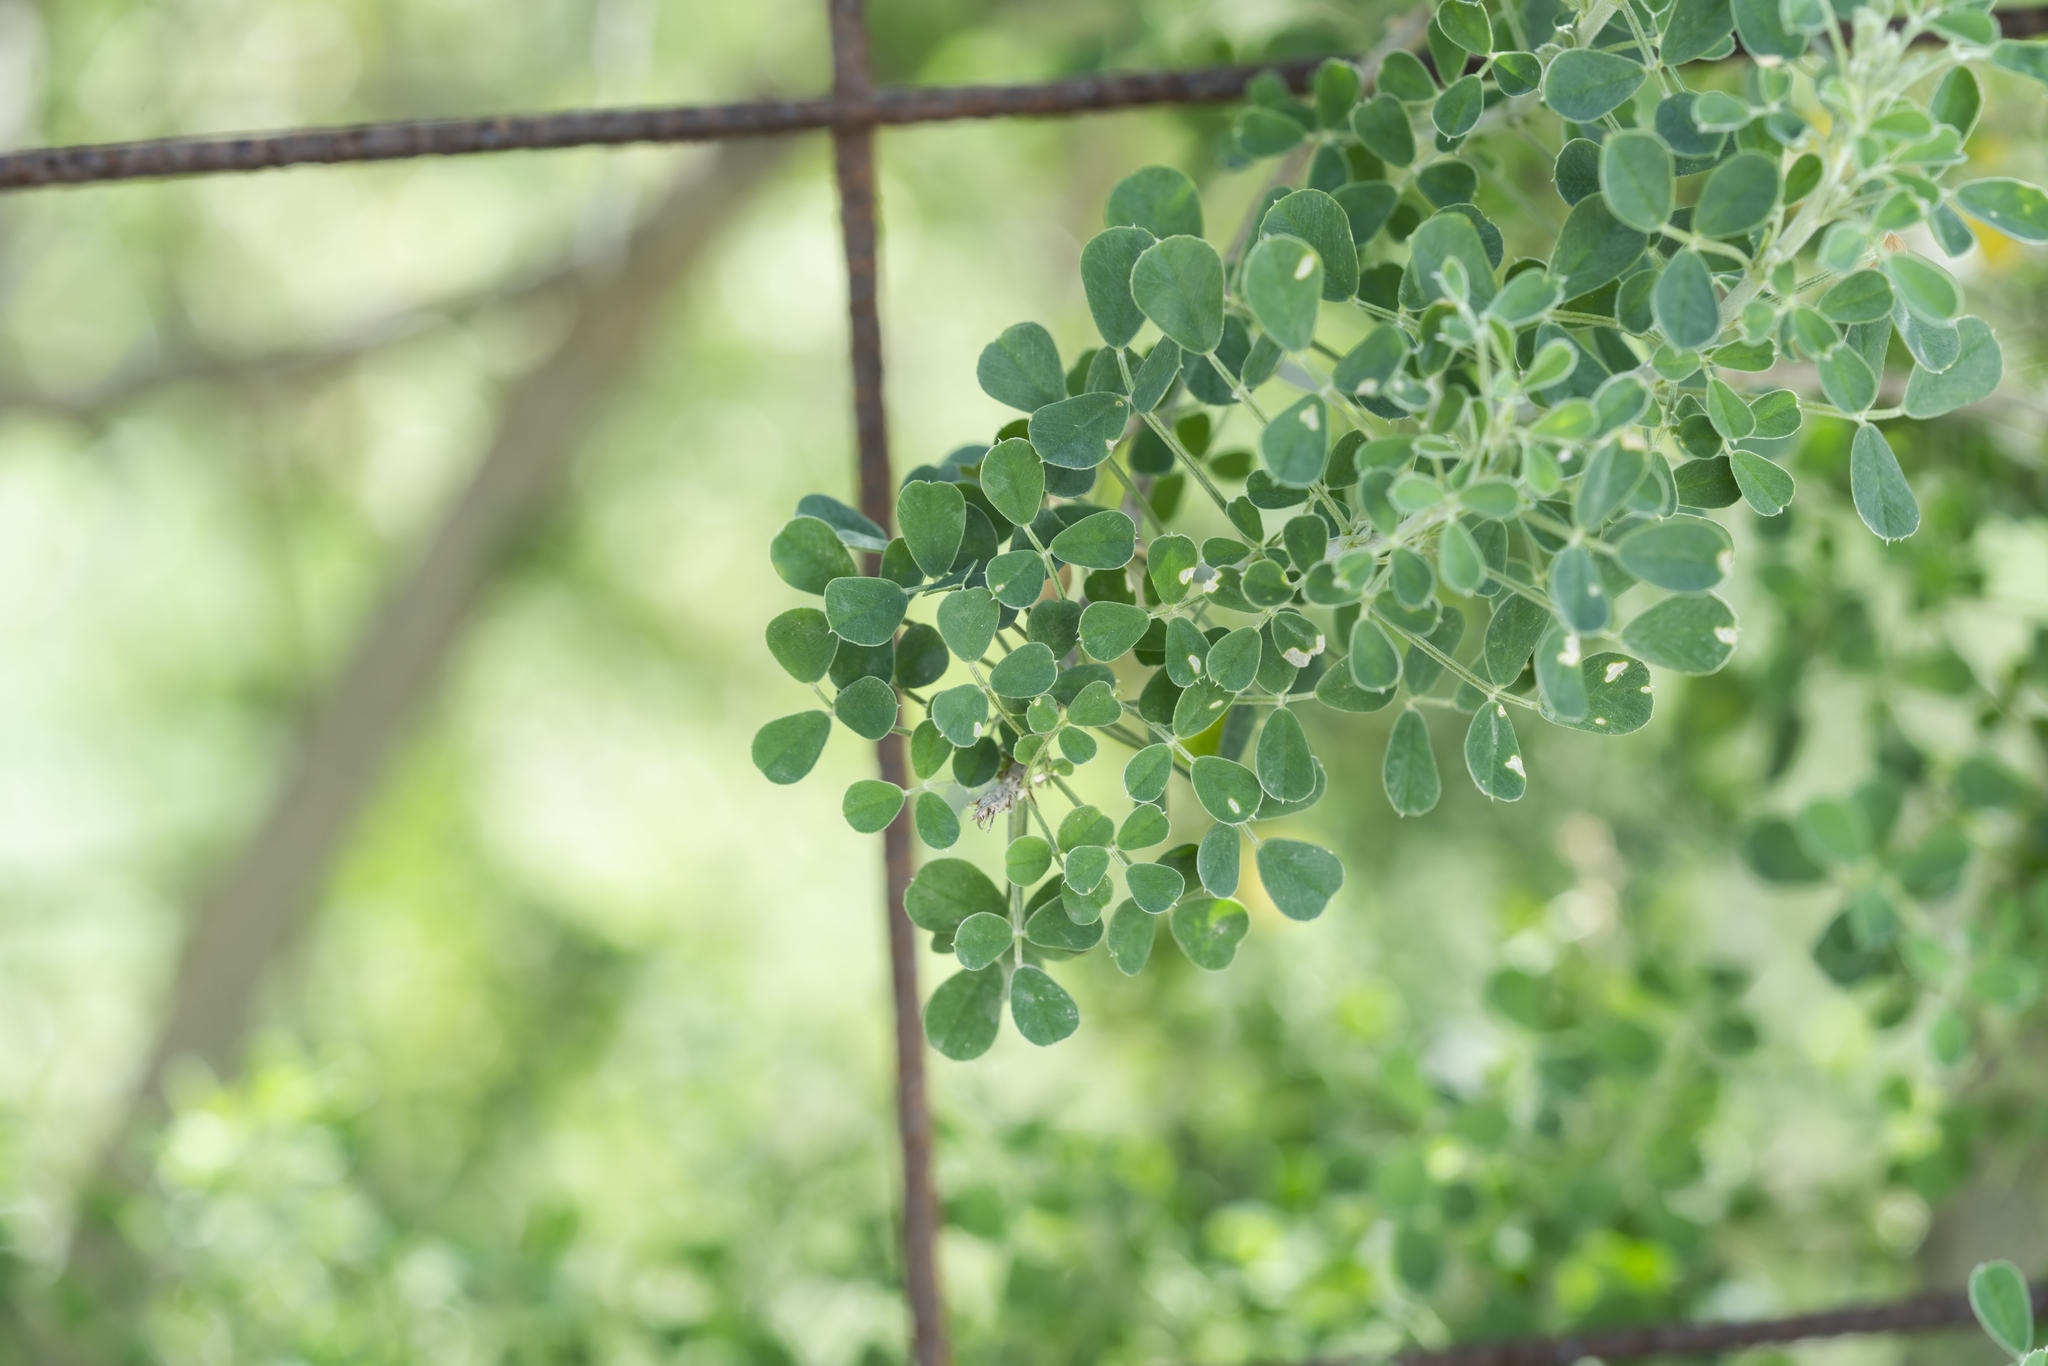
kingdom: Plantae
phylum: Tracheophyta
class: Magnoliopsida
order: Fabales
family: Fabaceae
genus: Medicago
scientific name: Medicago arborea
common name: Moon trefoil
